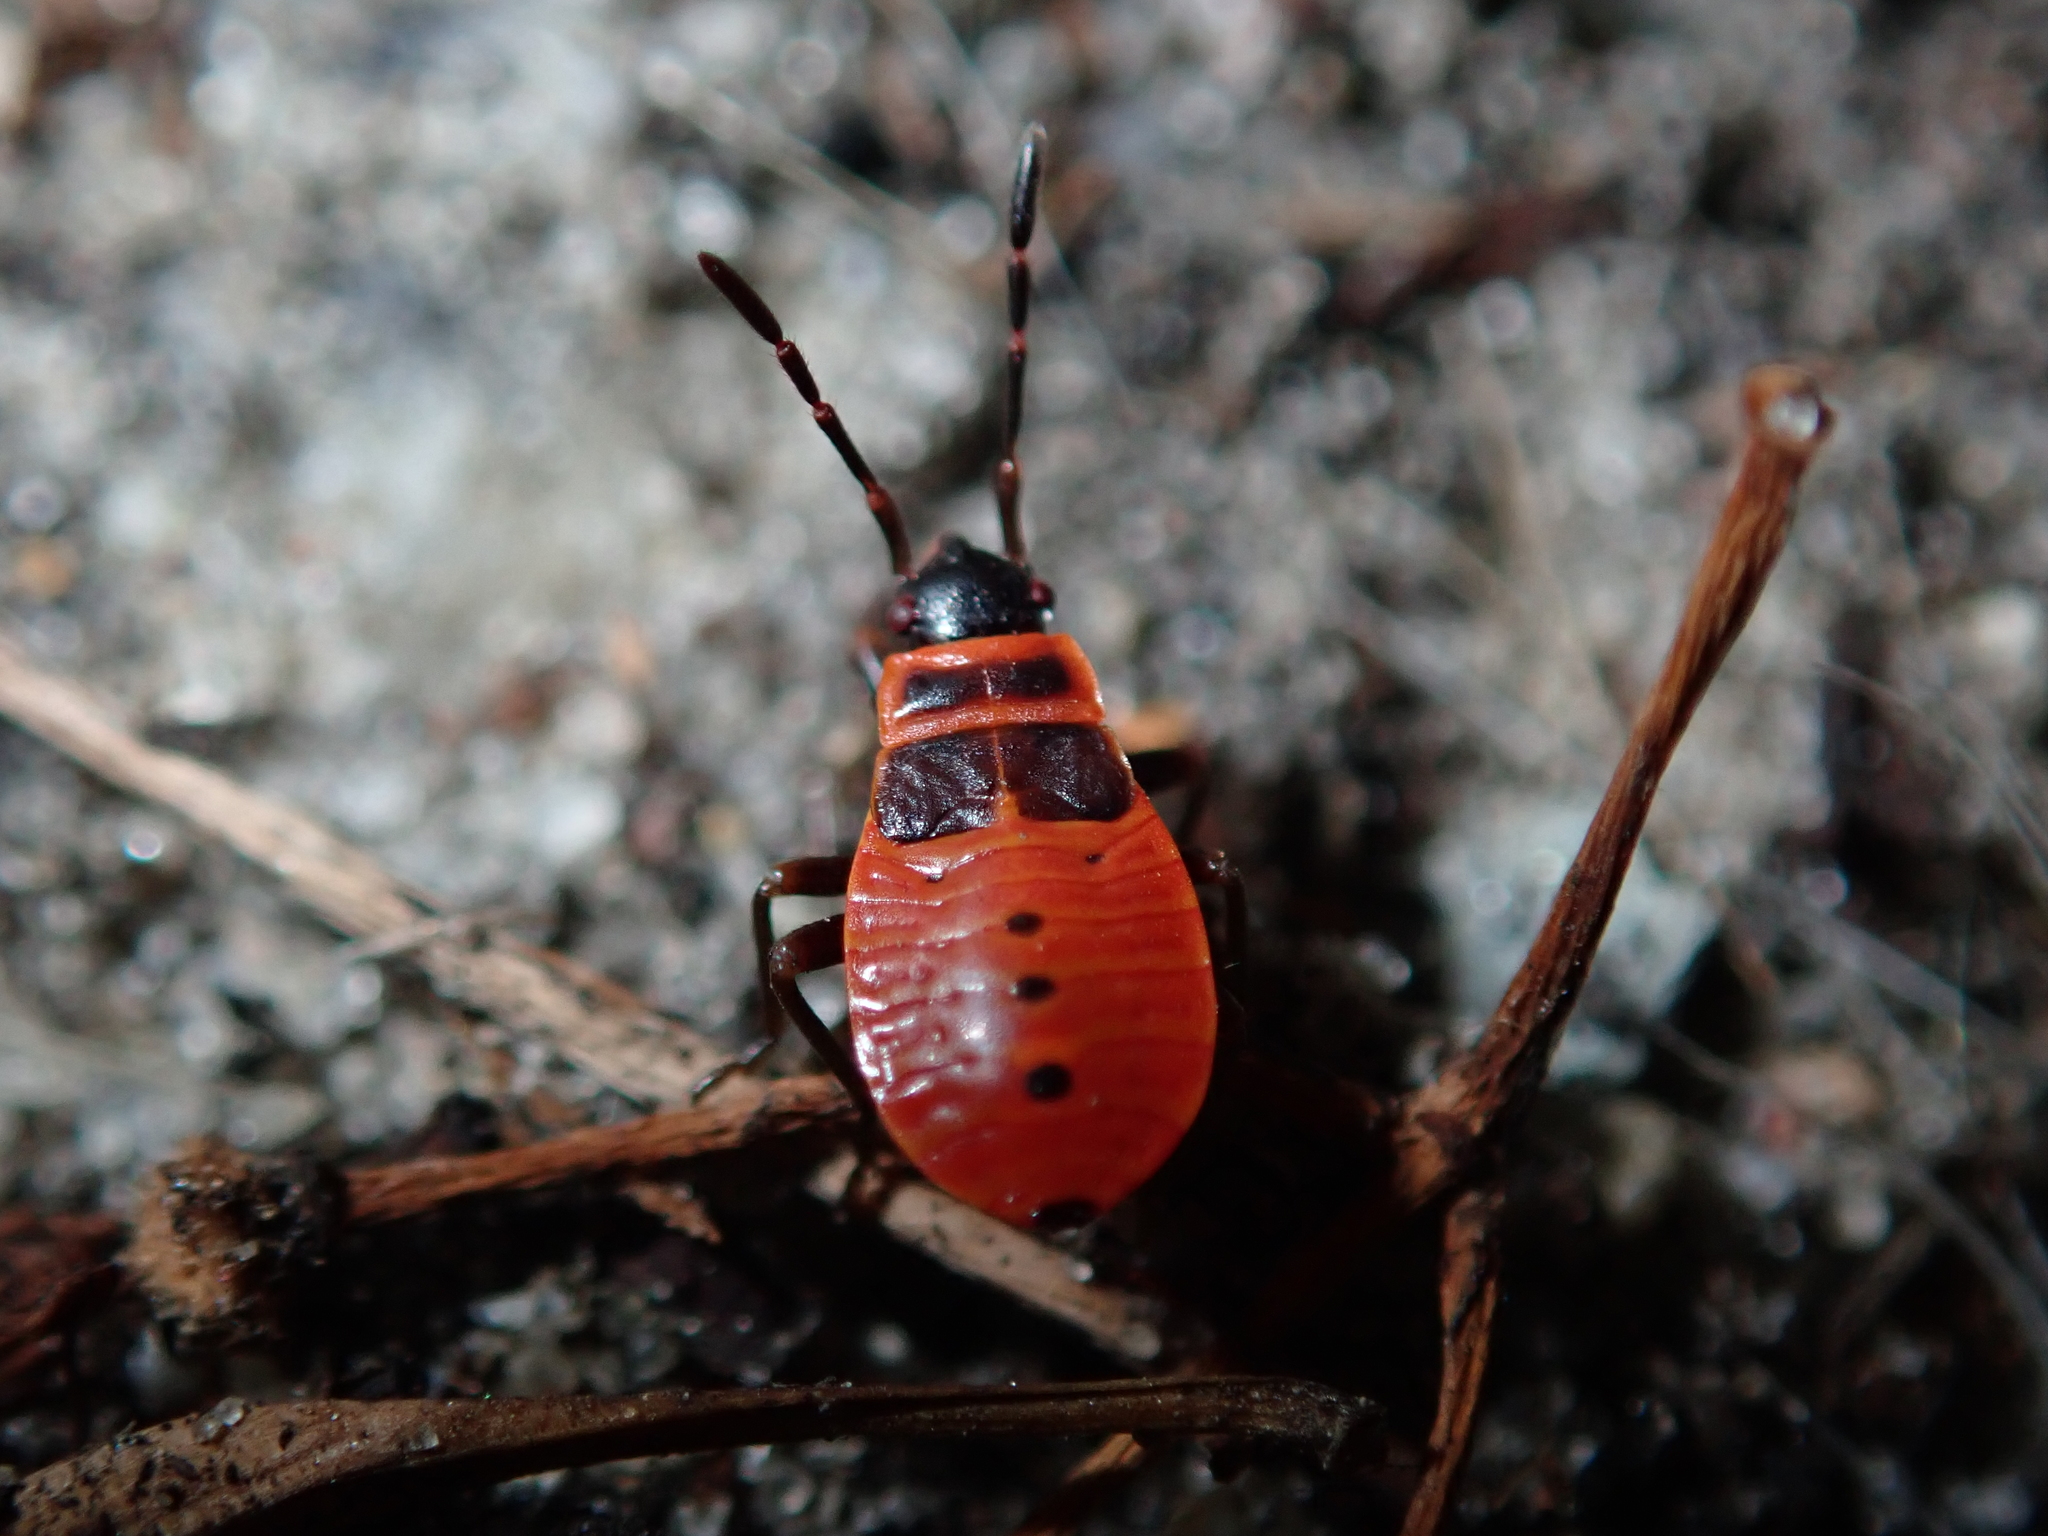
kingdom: Animalia
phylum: Arthropoda
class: Insecta
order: Hemiptera
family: Pyrrhocoridae
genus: Pyrrhocoris
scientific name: Pyrrhocoris apterus
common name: Firebug
